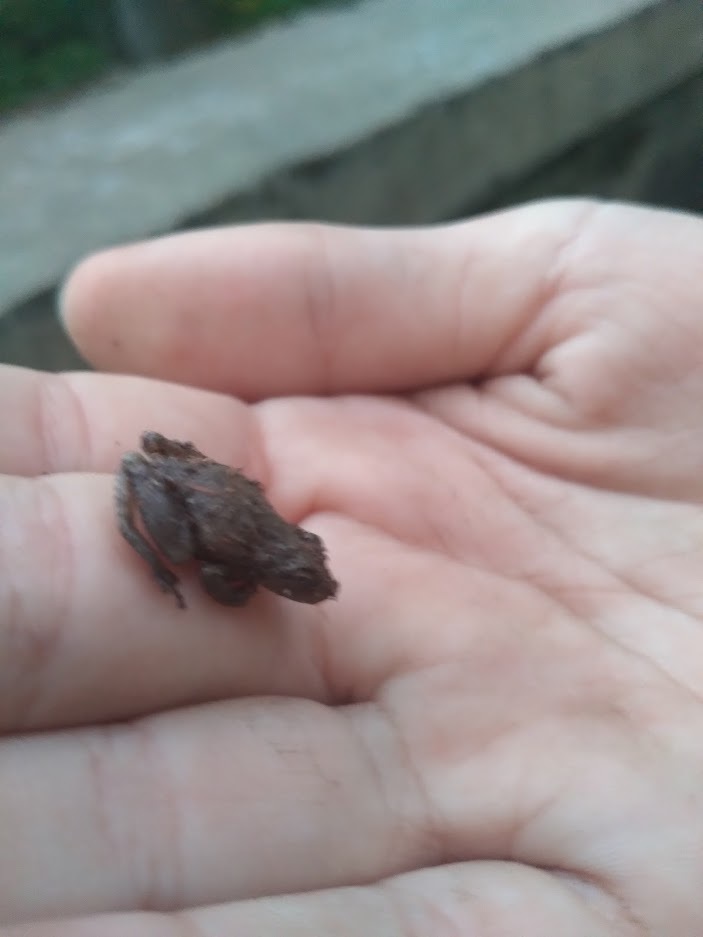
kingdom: Animalia
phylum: Chordata
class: Amphibia
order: Anura
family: Hylidae
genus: Pseudacris
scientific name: Pseudacris crucifer
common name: Spring peeper
